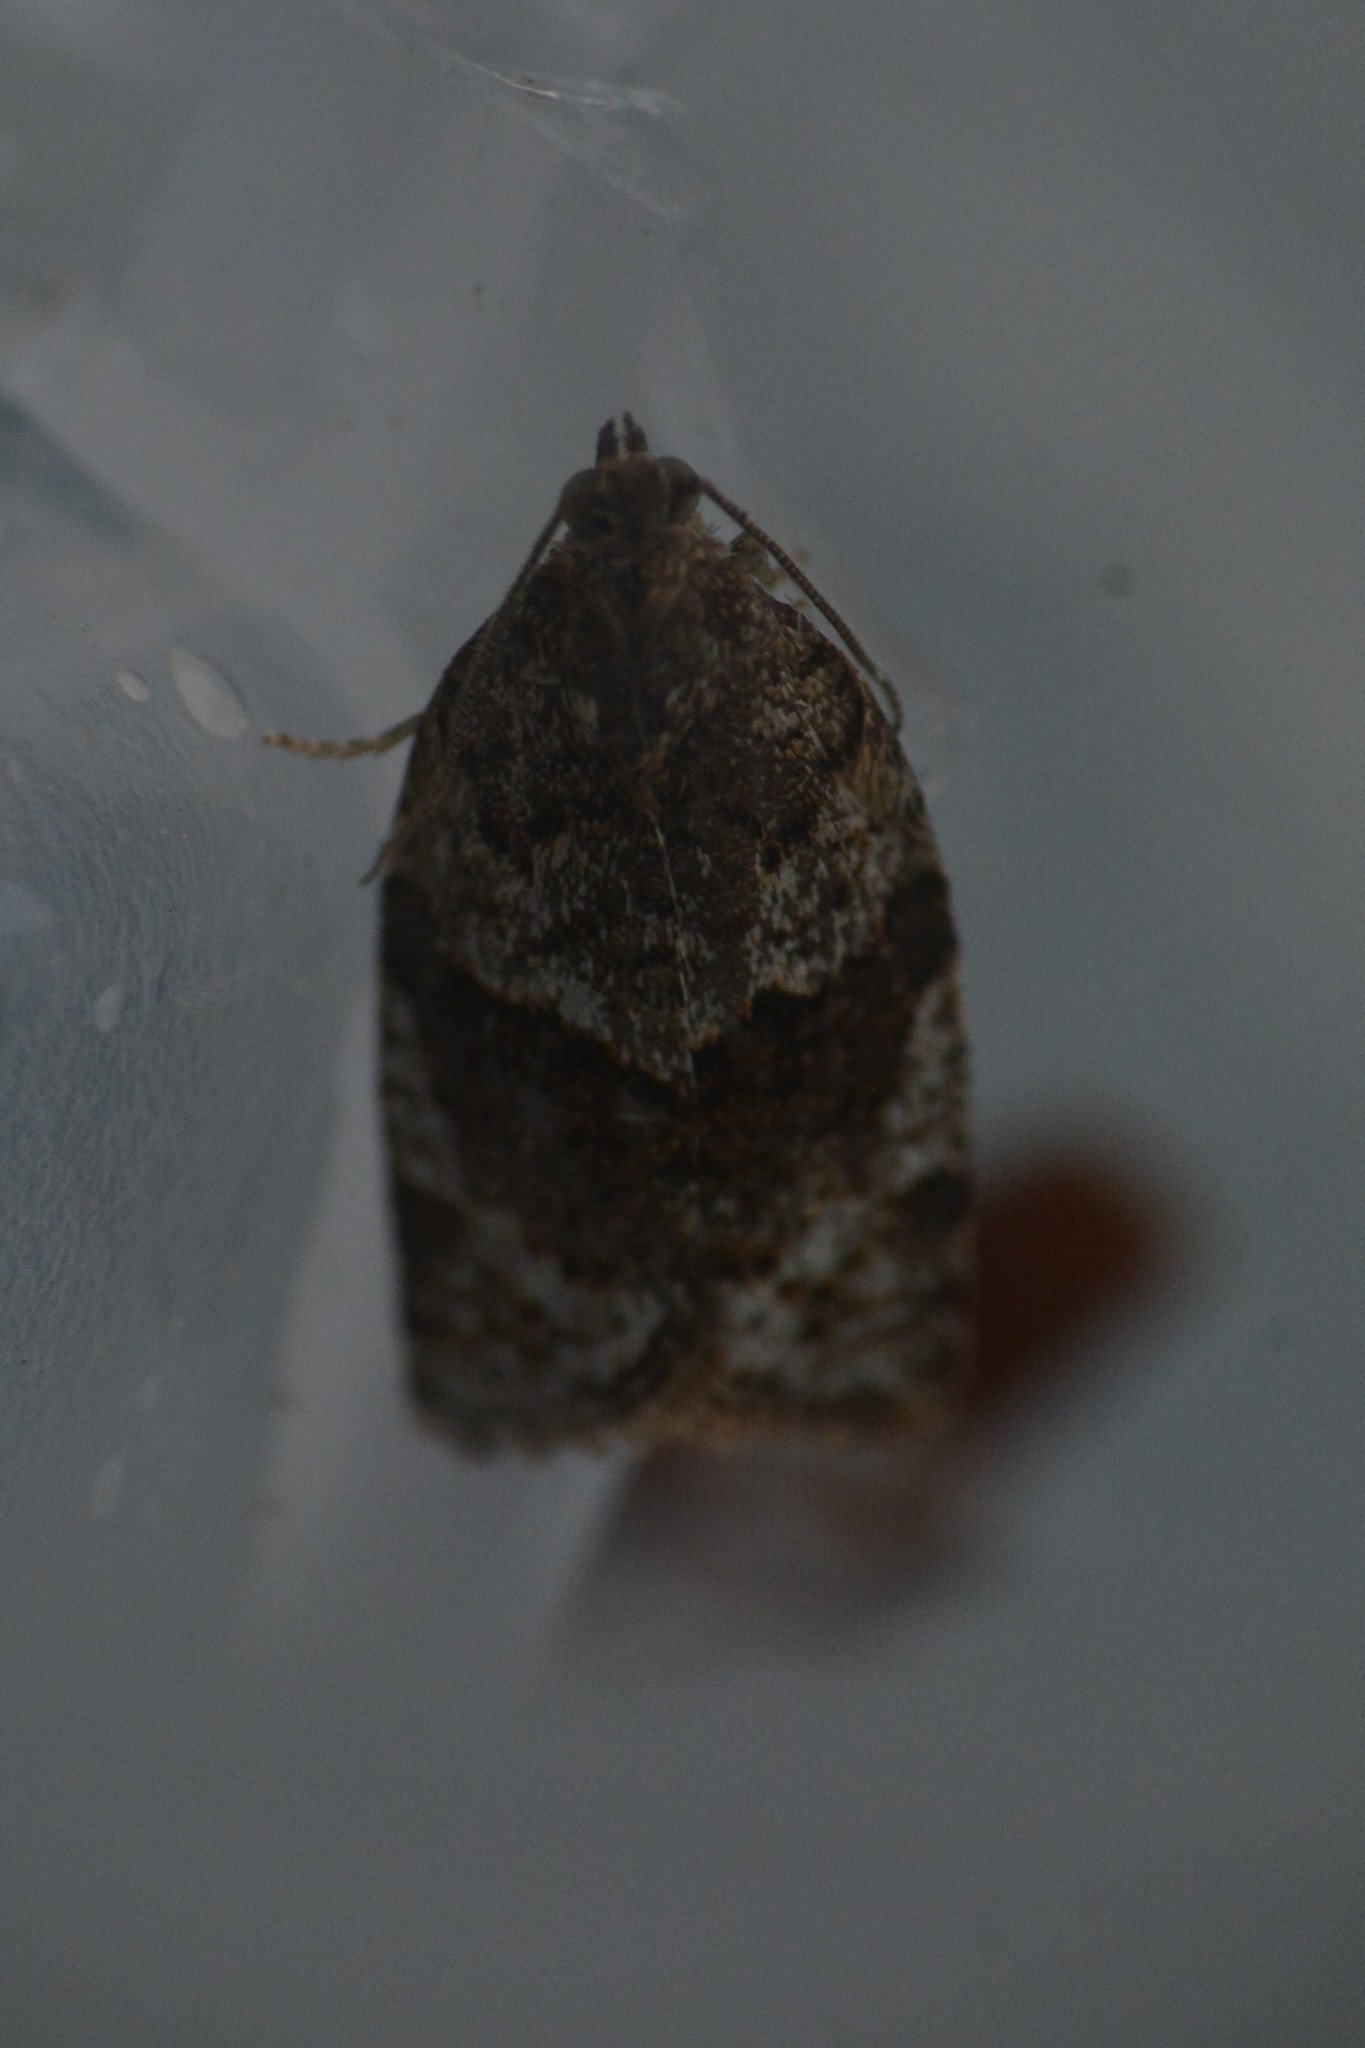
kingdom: Animalia
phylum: Arthropoda
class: Insecta
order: Lepidoptera
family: Tortricidae
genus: Syndemis
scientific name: Syndemis musculana
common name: Dark-barred twist
